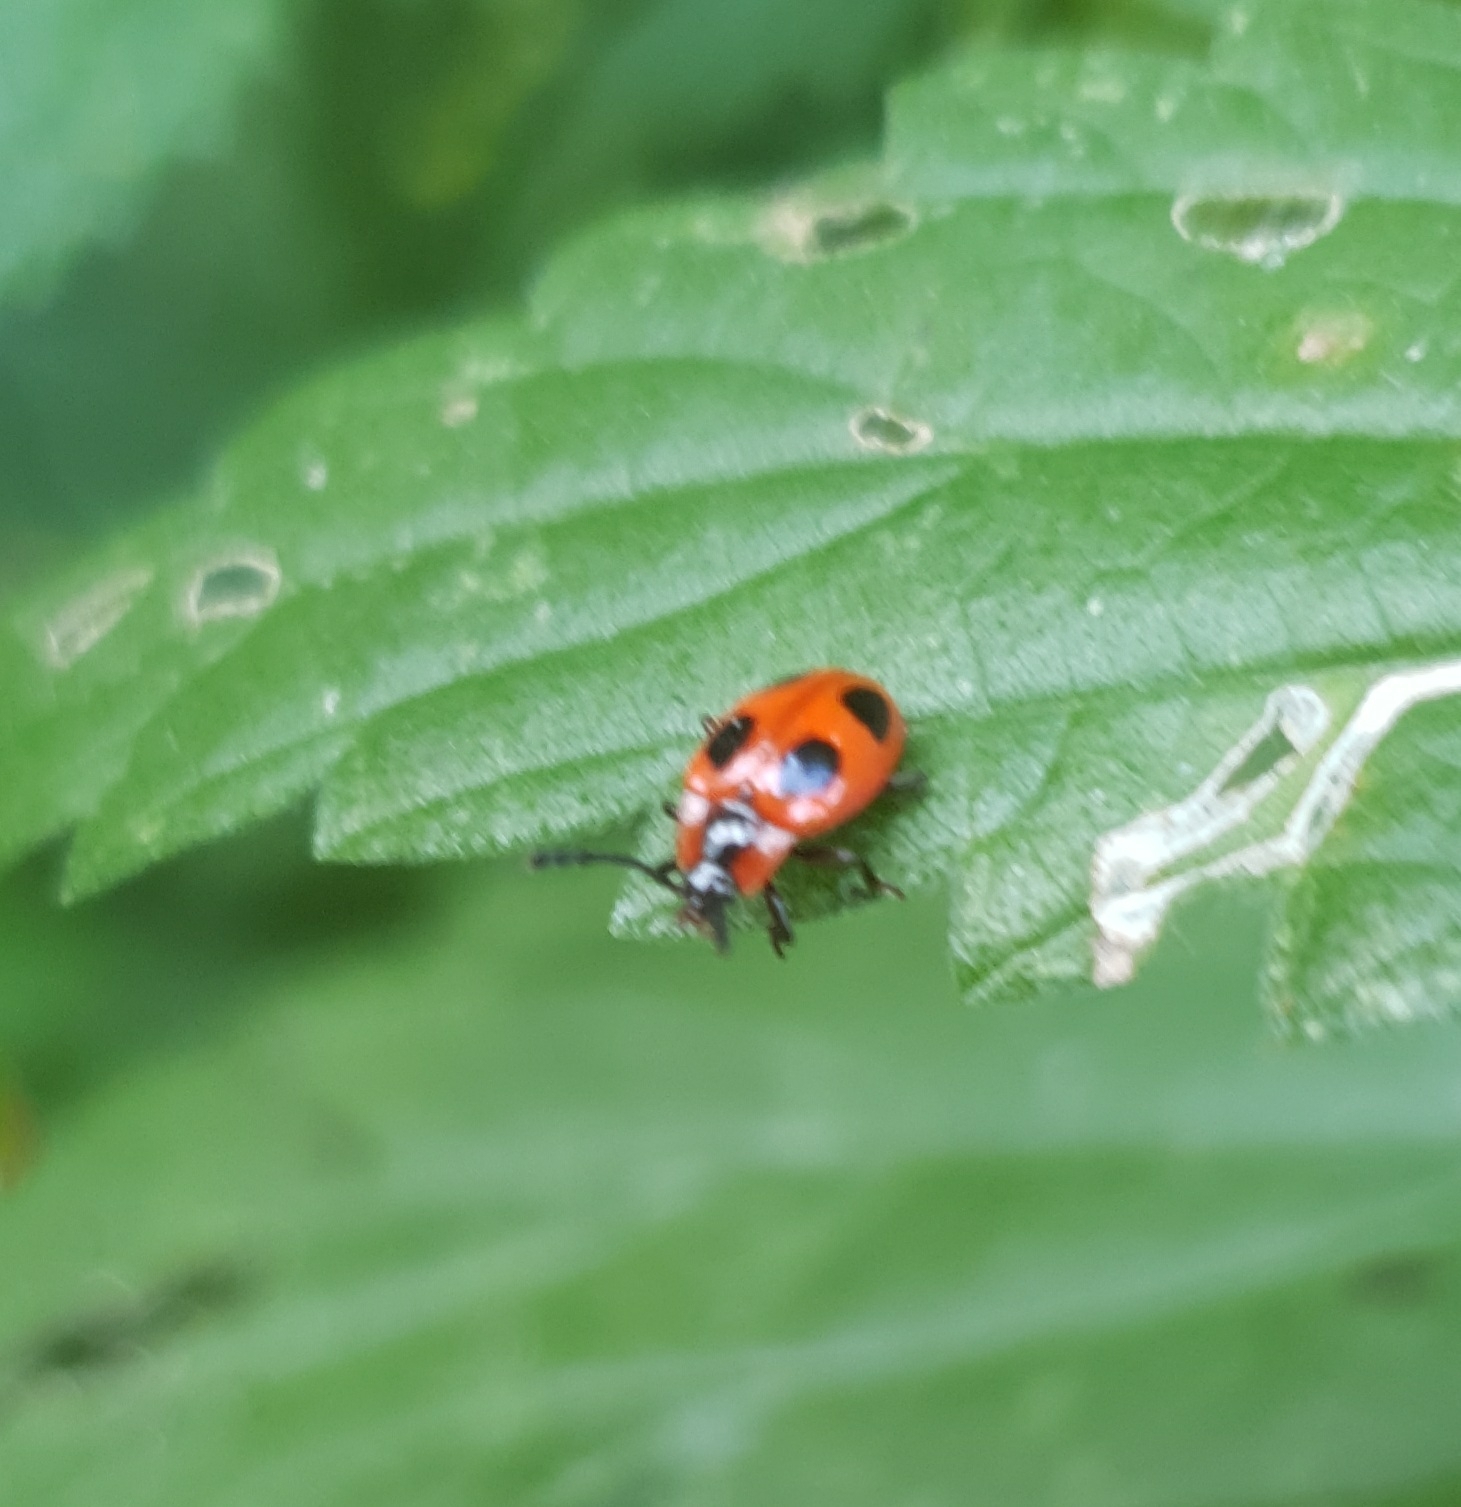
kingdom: Animalia
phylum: Arthropoda
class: Insecta
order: Coleoptera
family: Endomychidae
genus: Endomychus
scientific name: Endomychus coccineus
